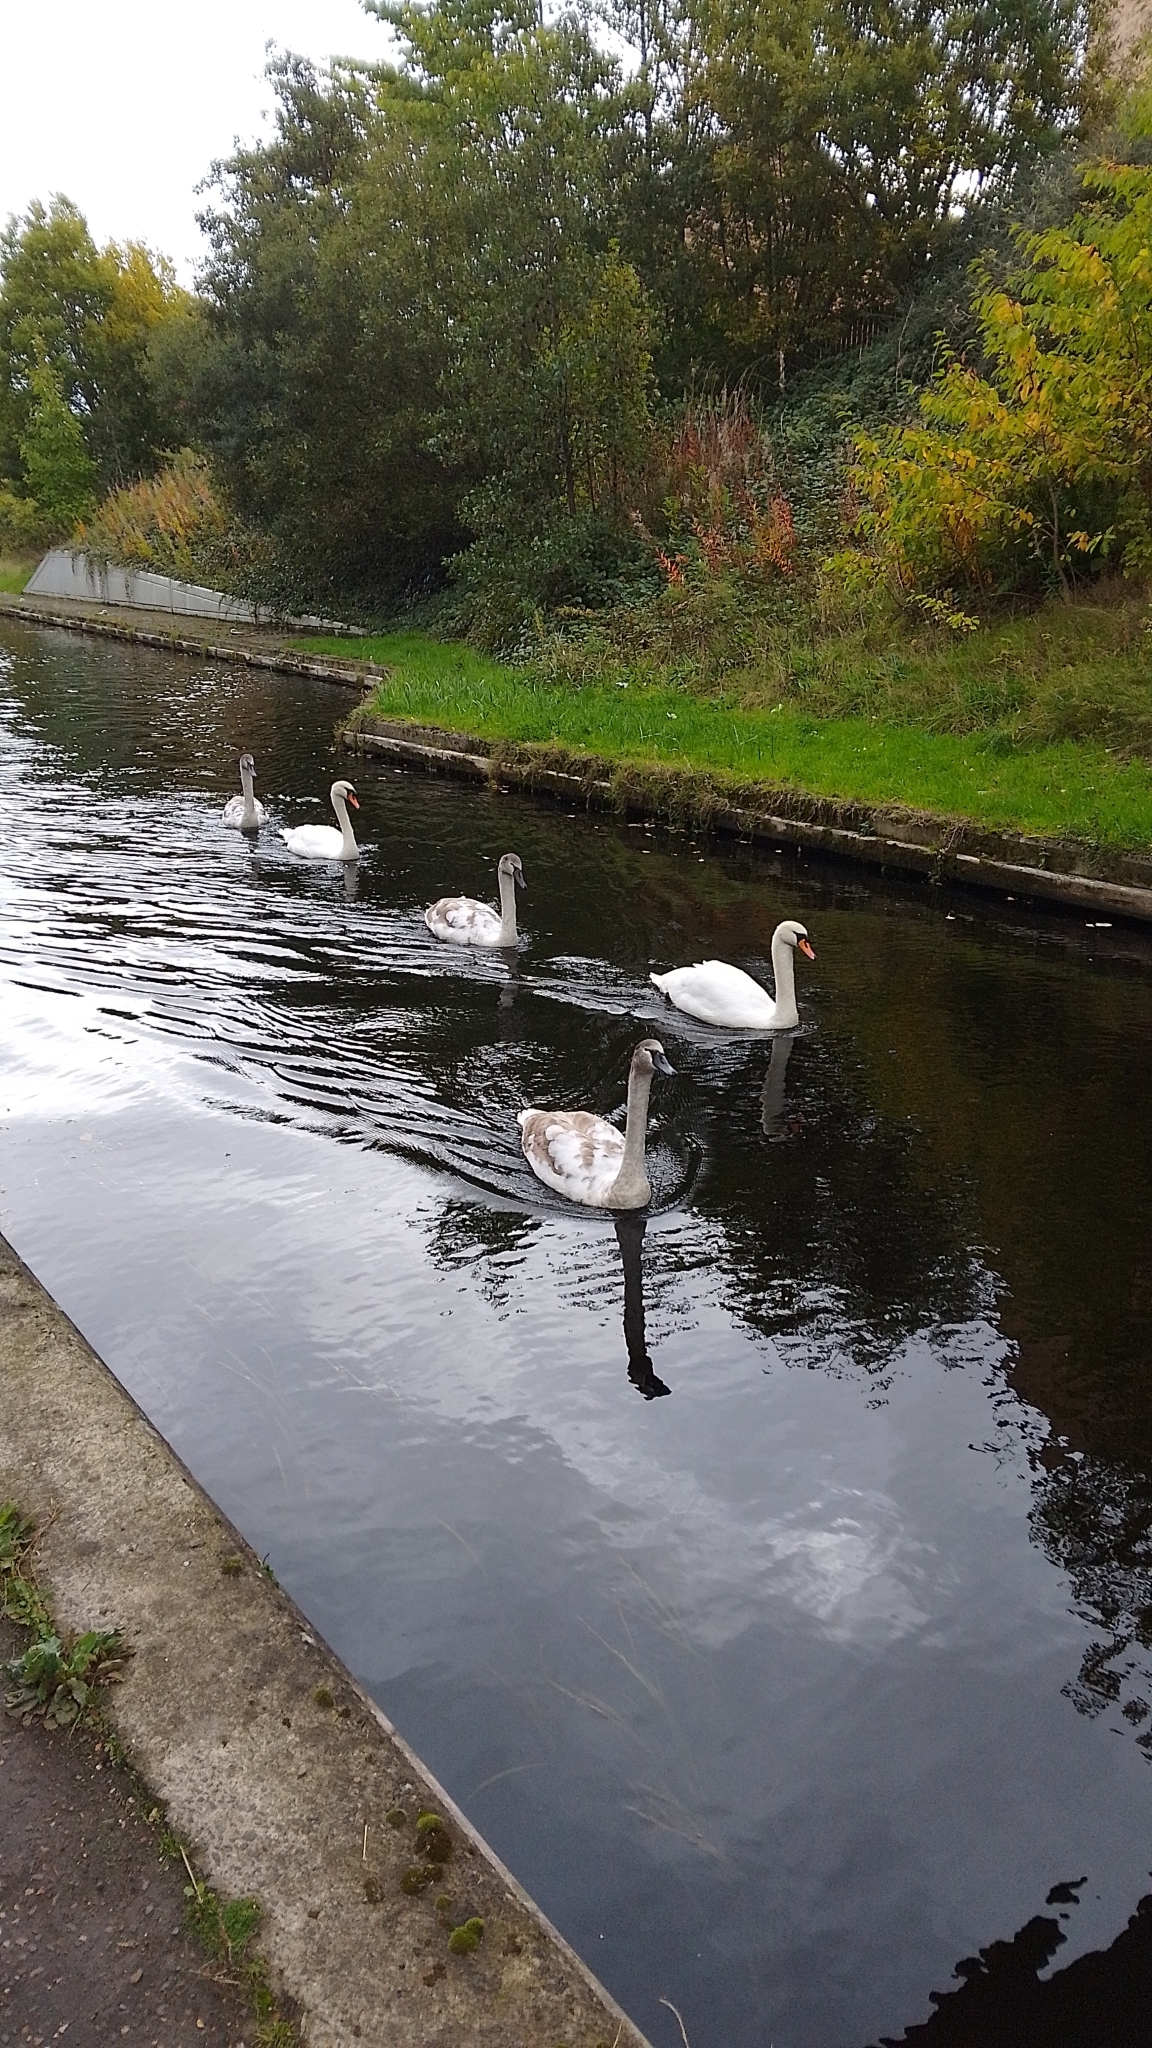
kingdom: Animalia
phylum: Chordata
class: Aves
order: Anseriformes
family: Anatidae
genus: Cygnus
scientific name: Cygnus olor
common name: Mute swan
